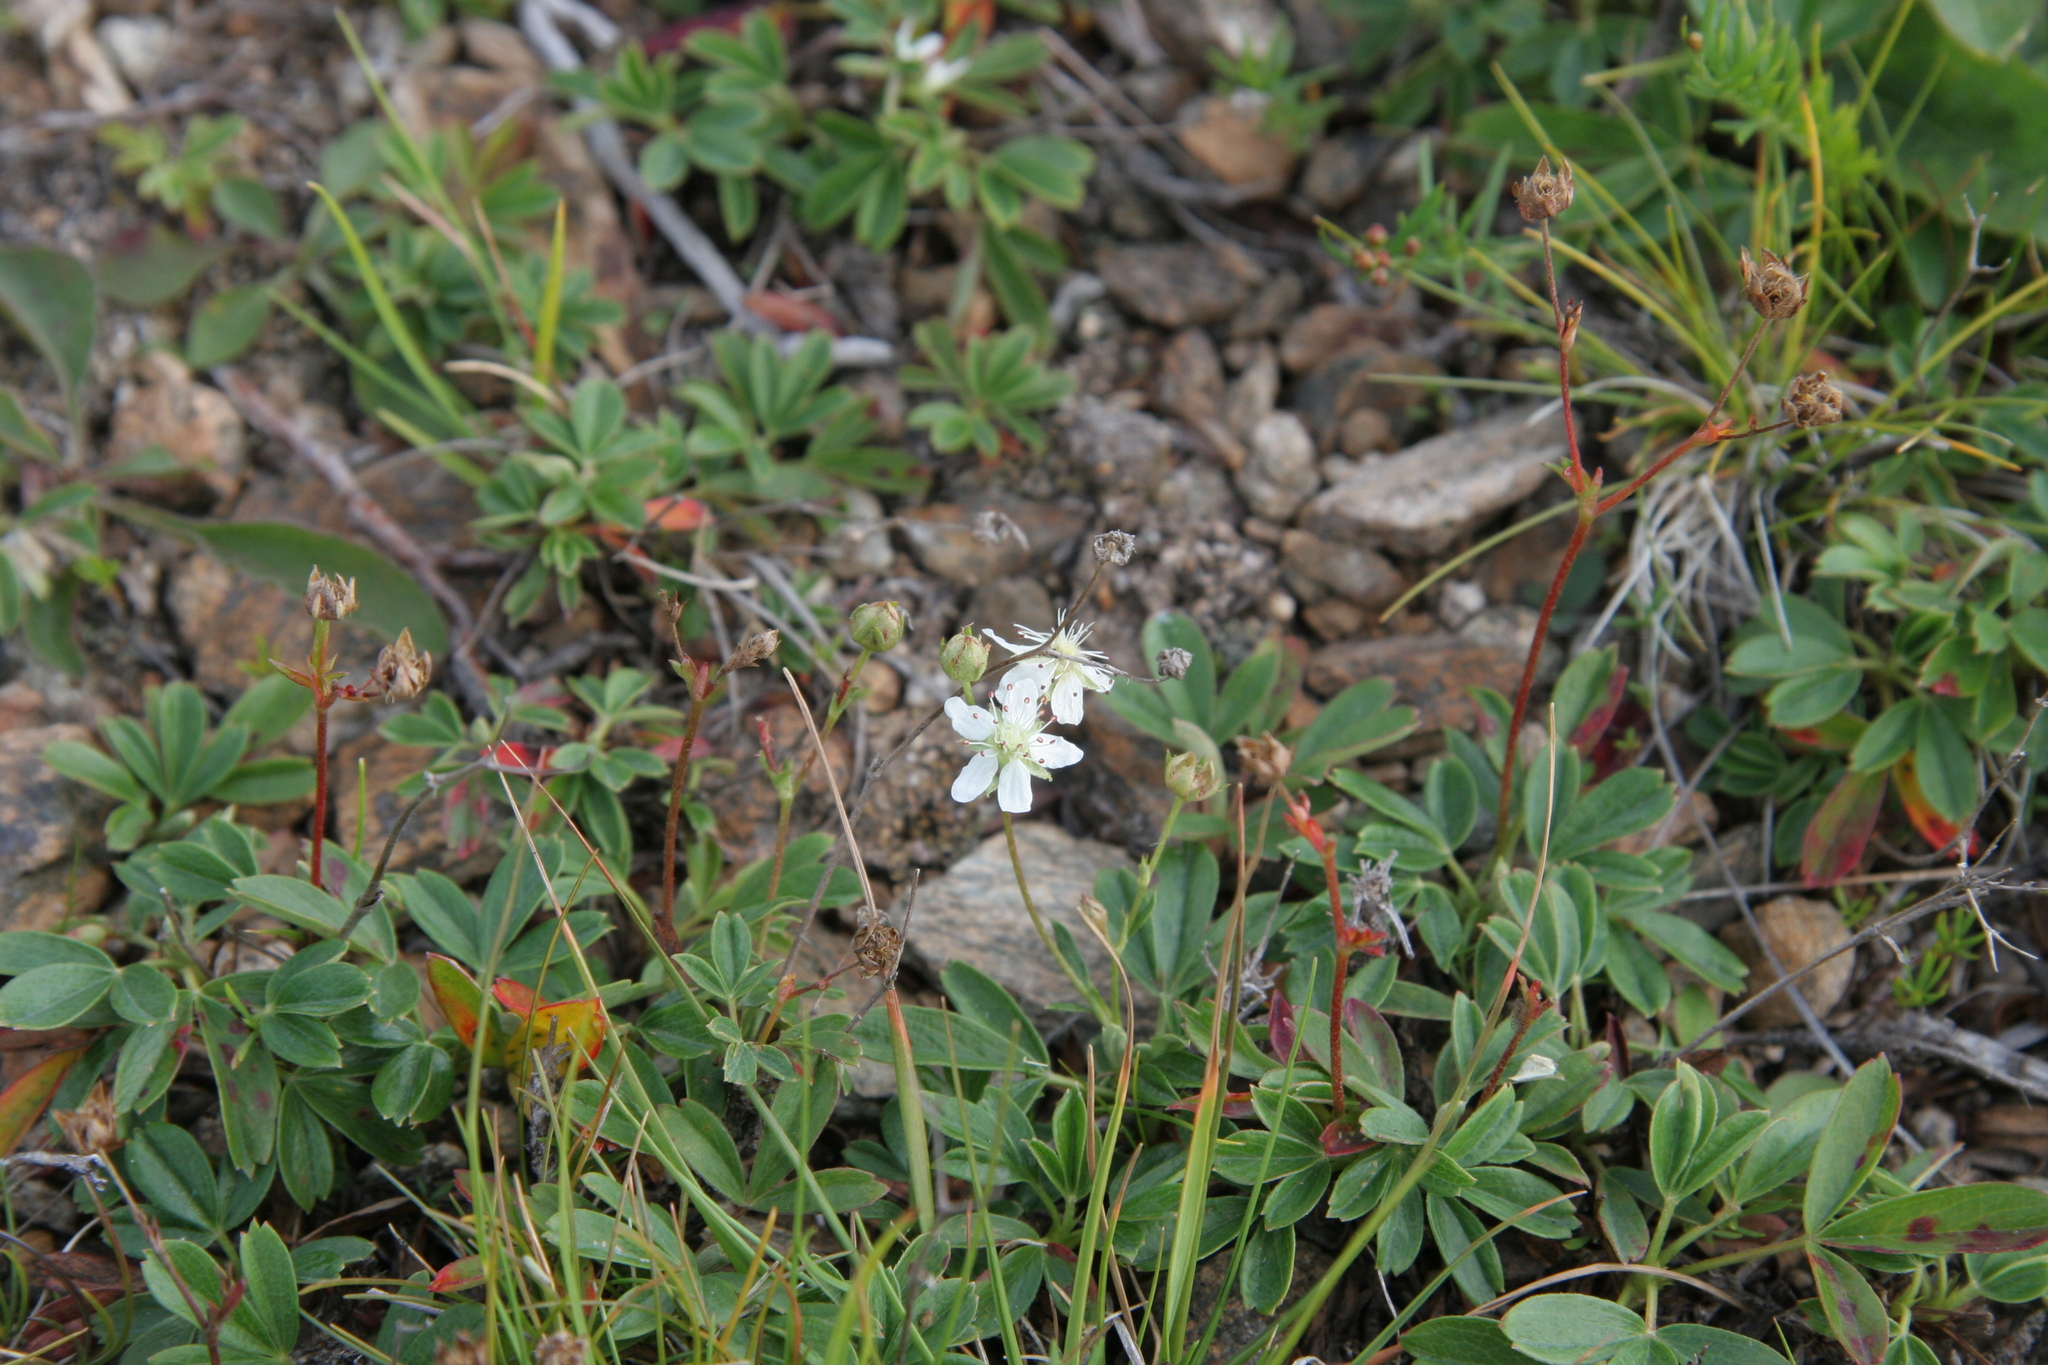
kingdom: Plantae
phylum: Tracheophyta
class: Magnoliopsida
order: Rosales
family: Rosaceae
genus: Sibbaldia
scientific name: Sibbaldia tridentata
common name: Three-toothed cinquefoil
